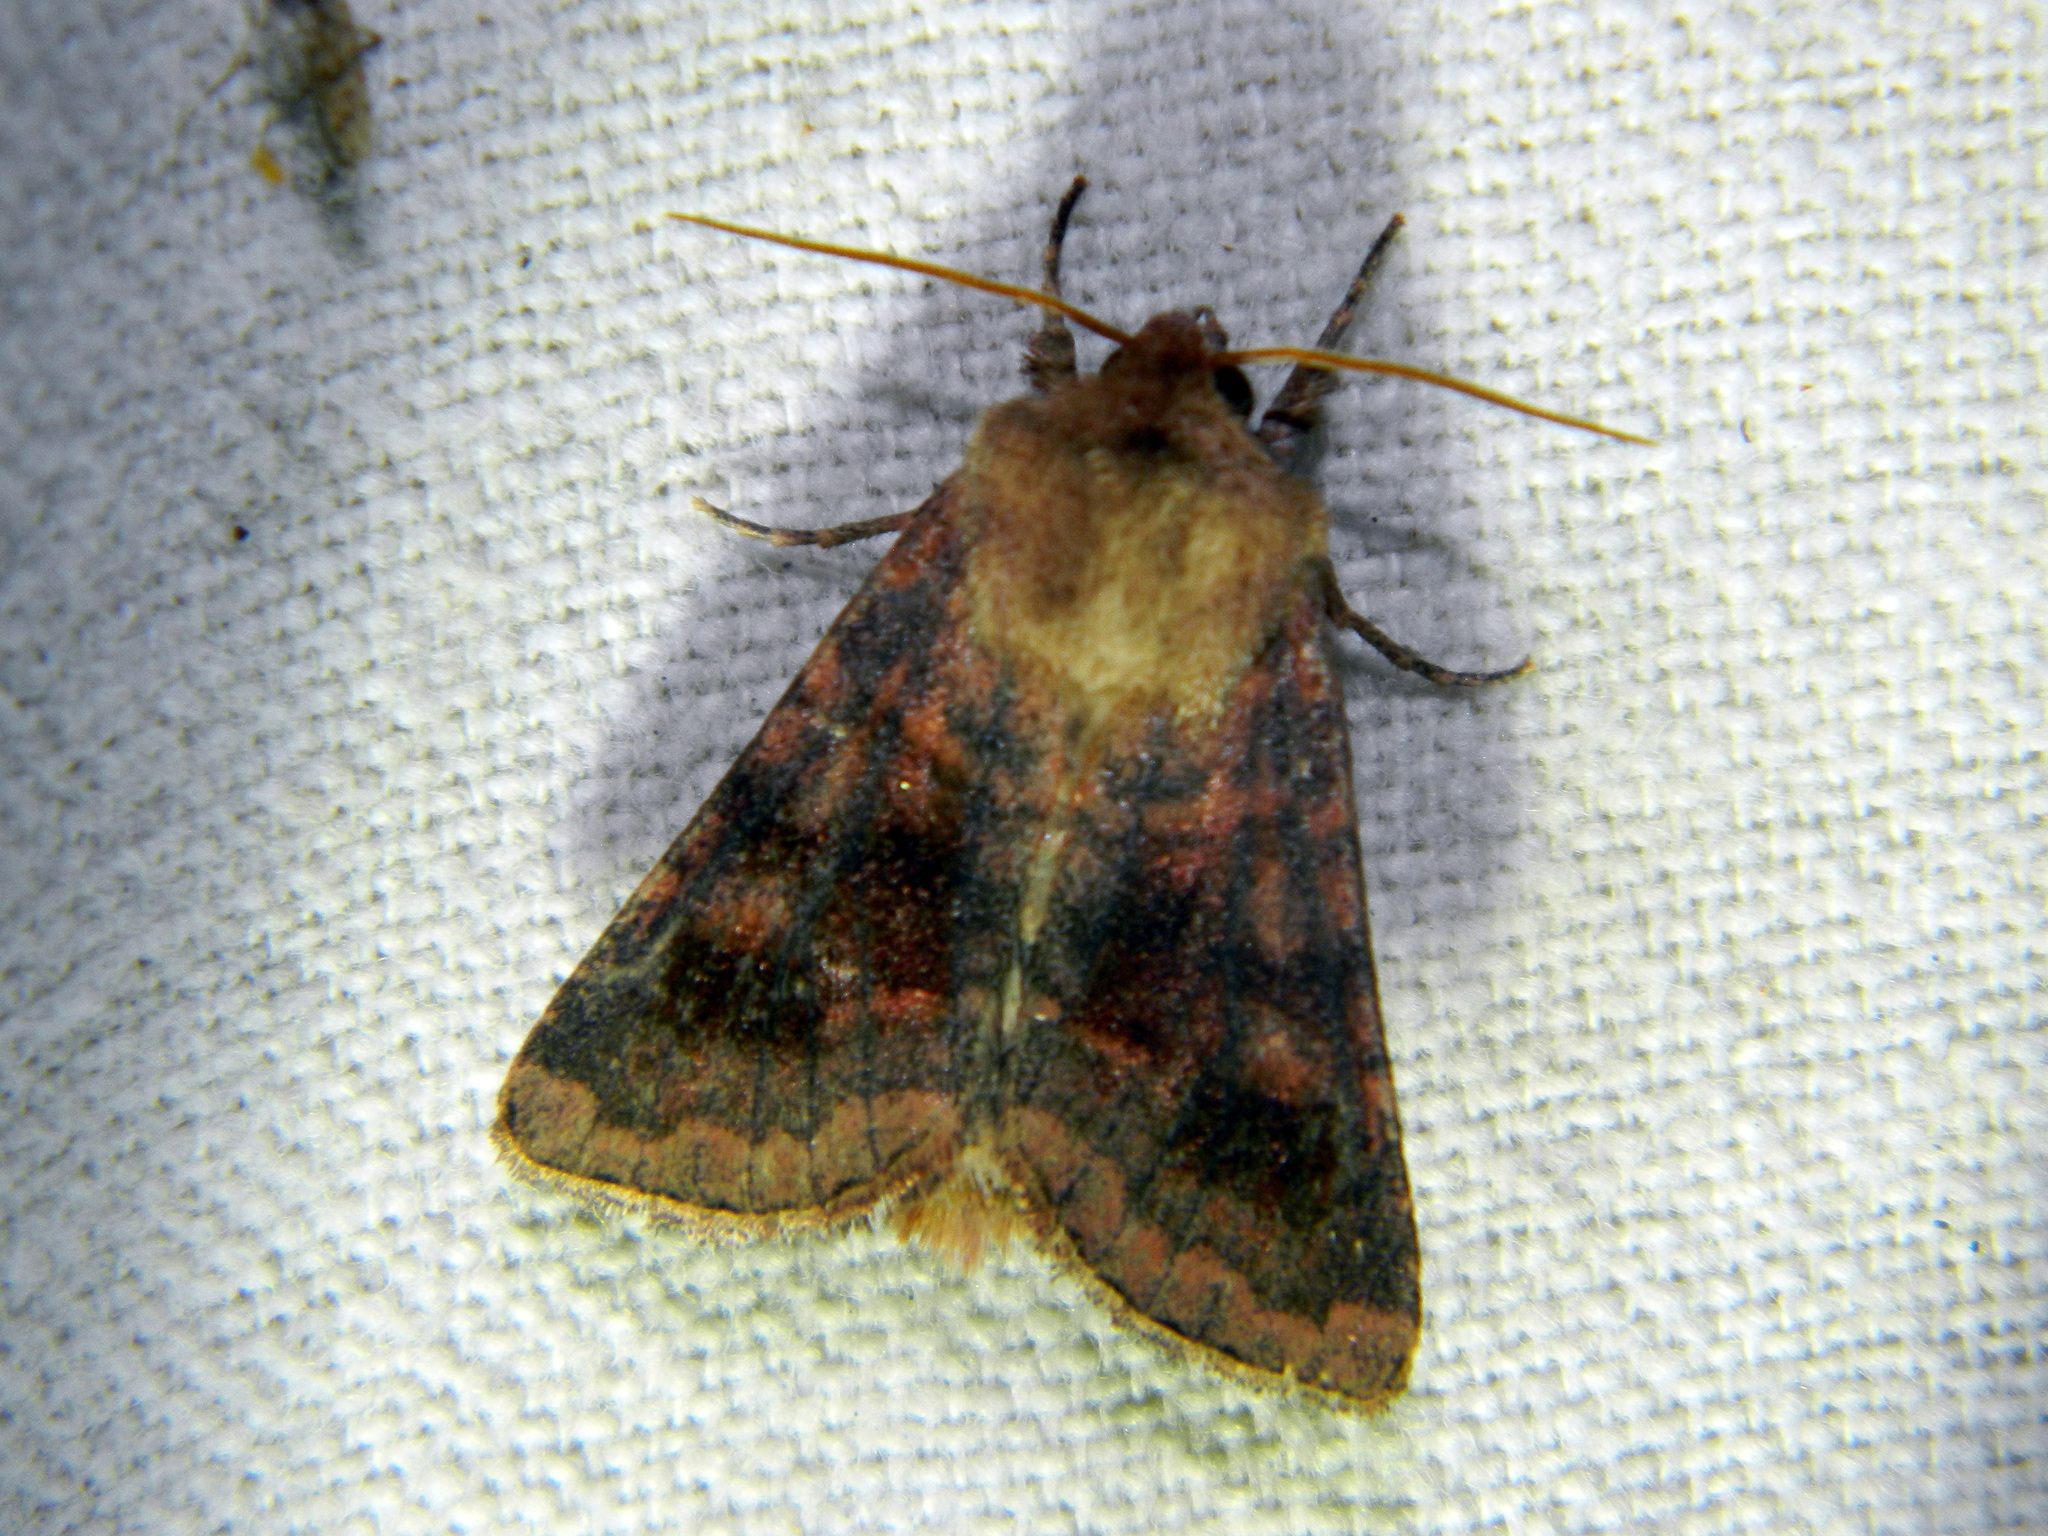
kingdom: Animalia
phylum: Arthropoda
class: Insecta
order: Lepidoptera
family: Noctuidae
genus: Nephelodes
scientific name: Nephelodes minians
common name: Bronzed cutworm
